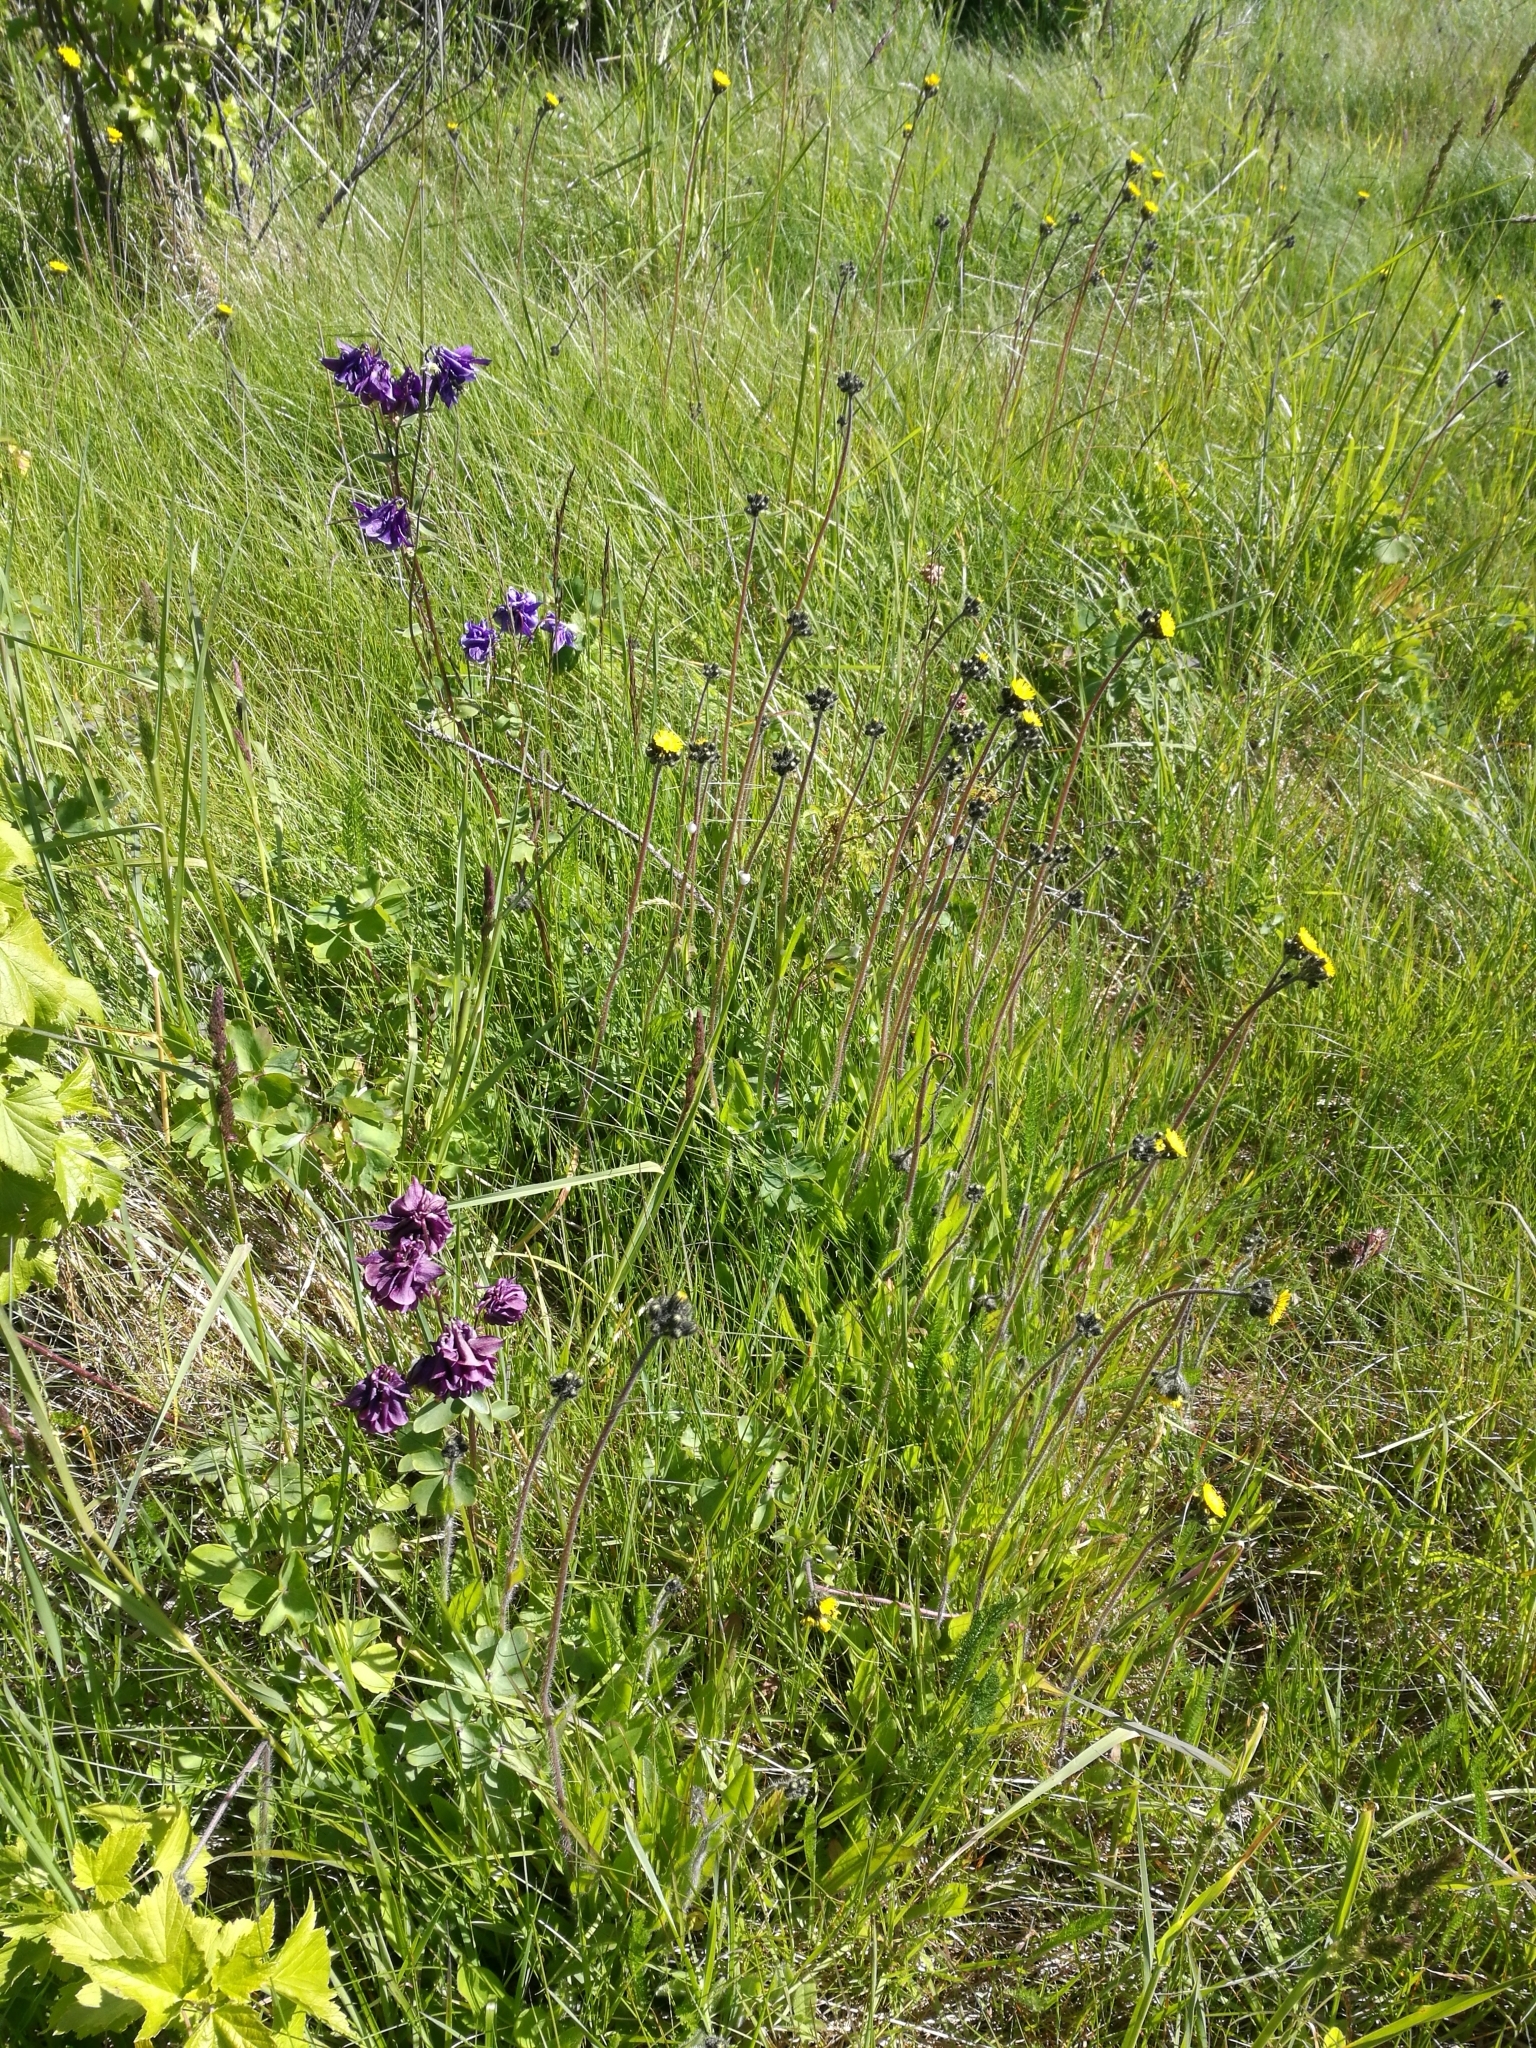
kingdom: Plantae
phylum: Tracheophyta
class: Magnoliopsida
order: Ranunculales
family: Ranunculaceae
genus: Aquilegia
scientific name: Aquilegia vulgaris
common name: Columbine
